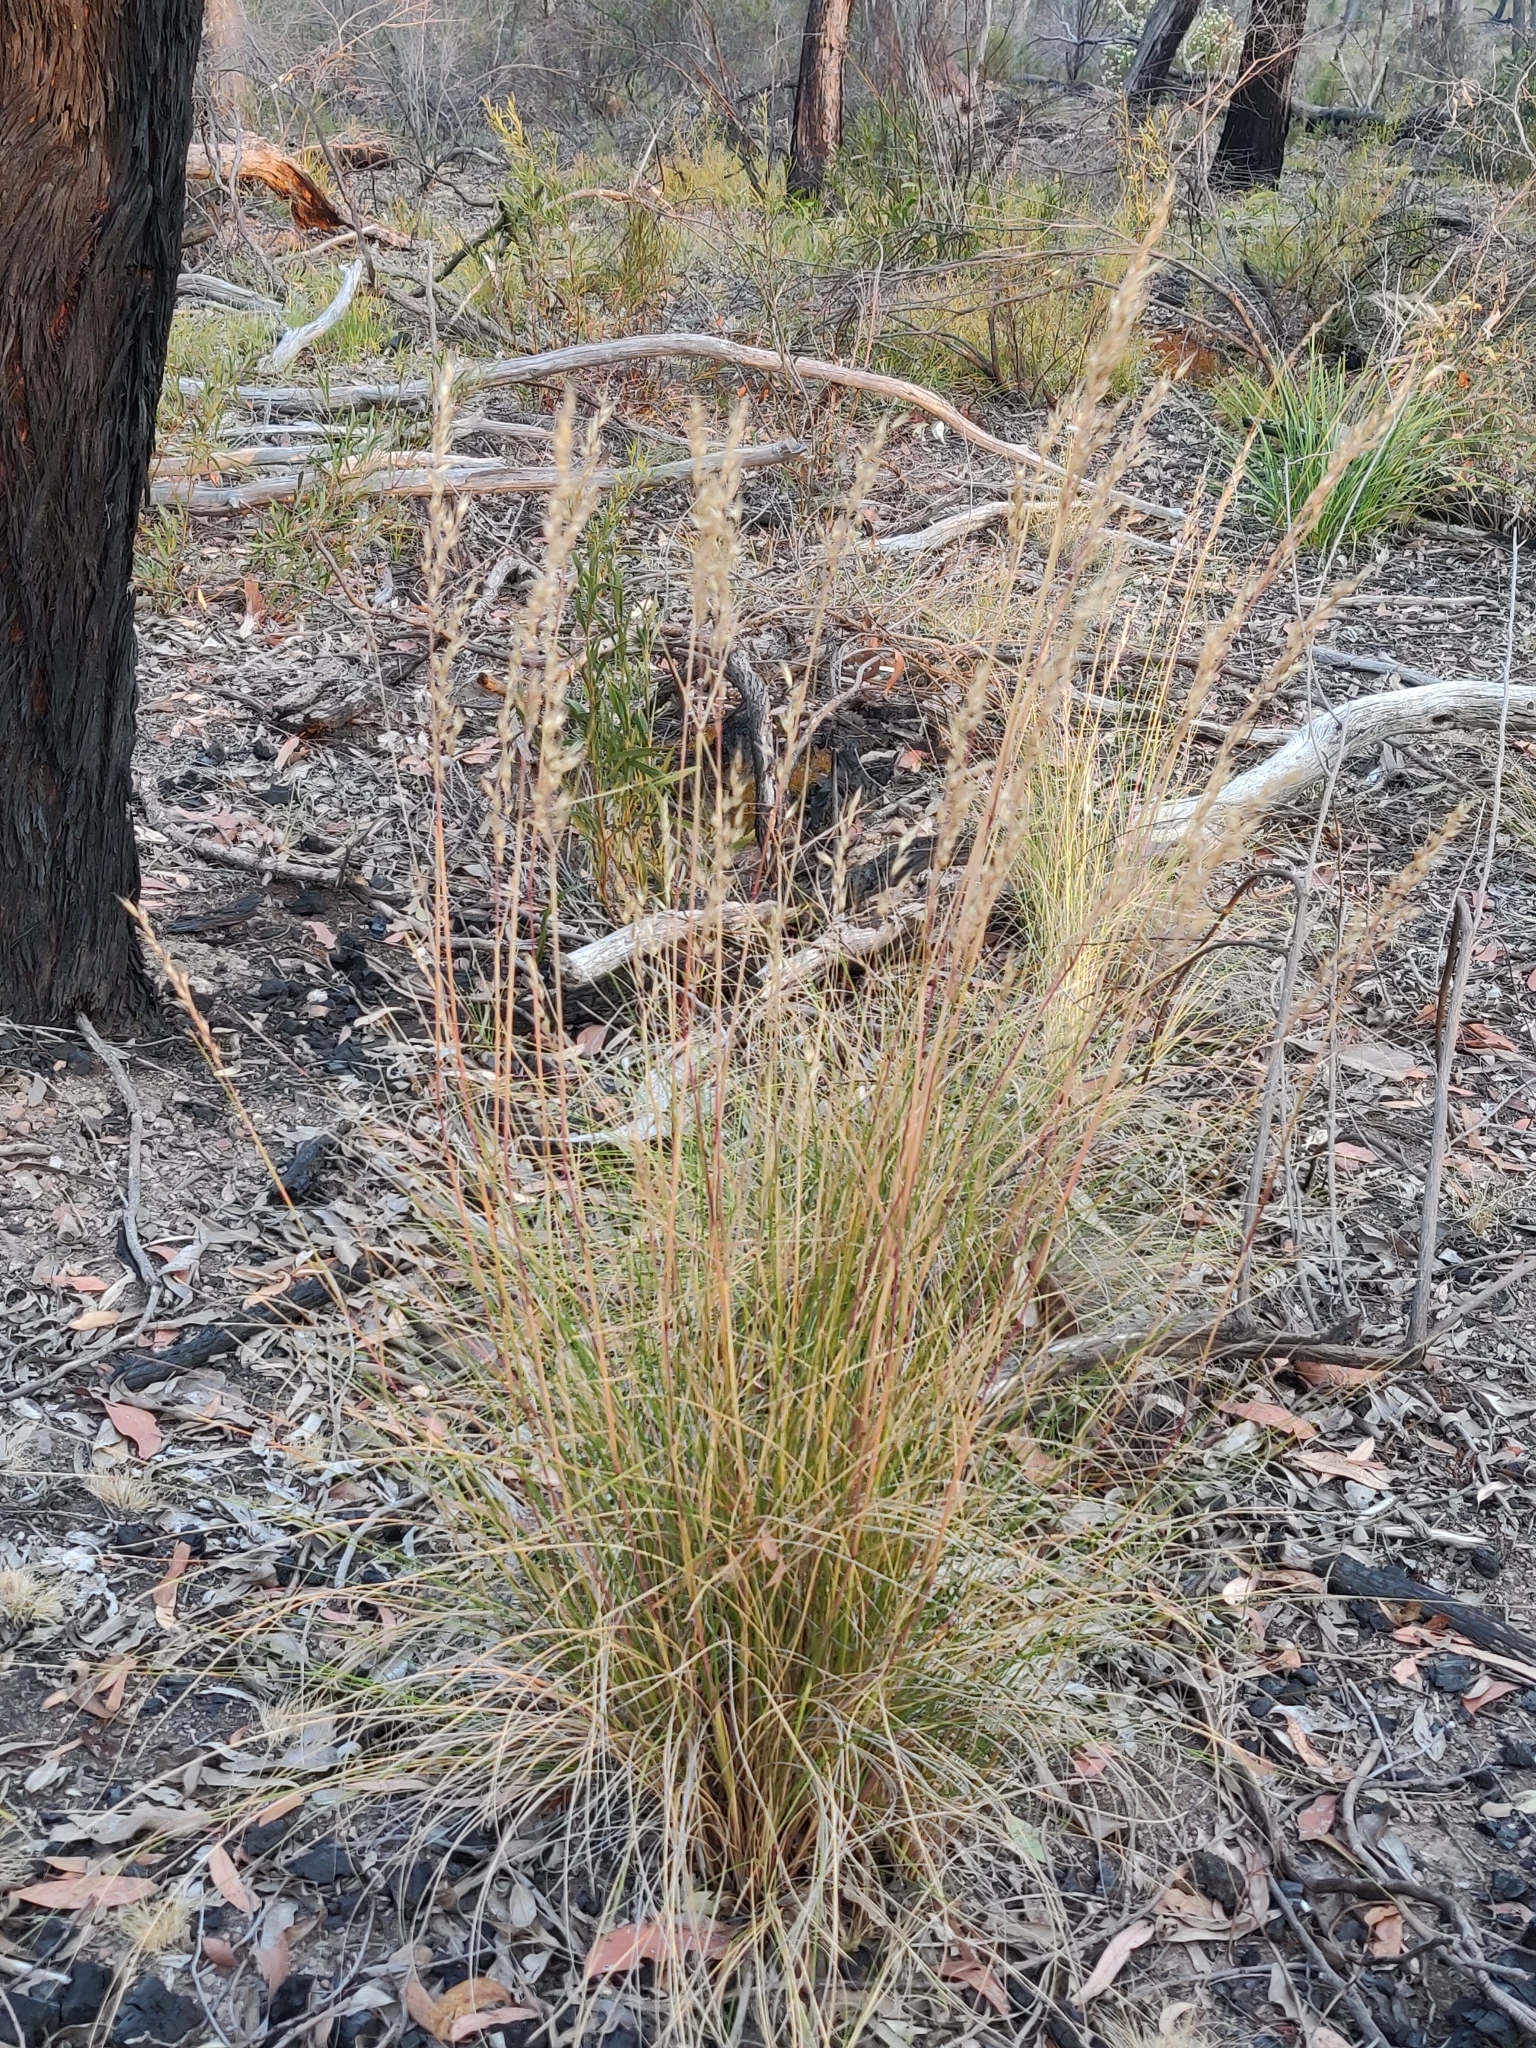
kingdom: Plantae
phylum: Tracheophyta
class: Liliopsida
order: Poales
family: Poaceae
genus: Rytidosperma
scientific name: Rytidosperma fulvum
